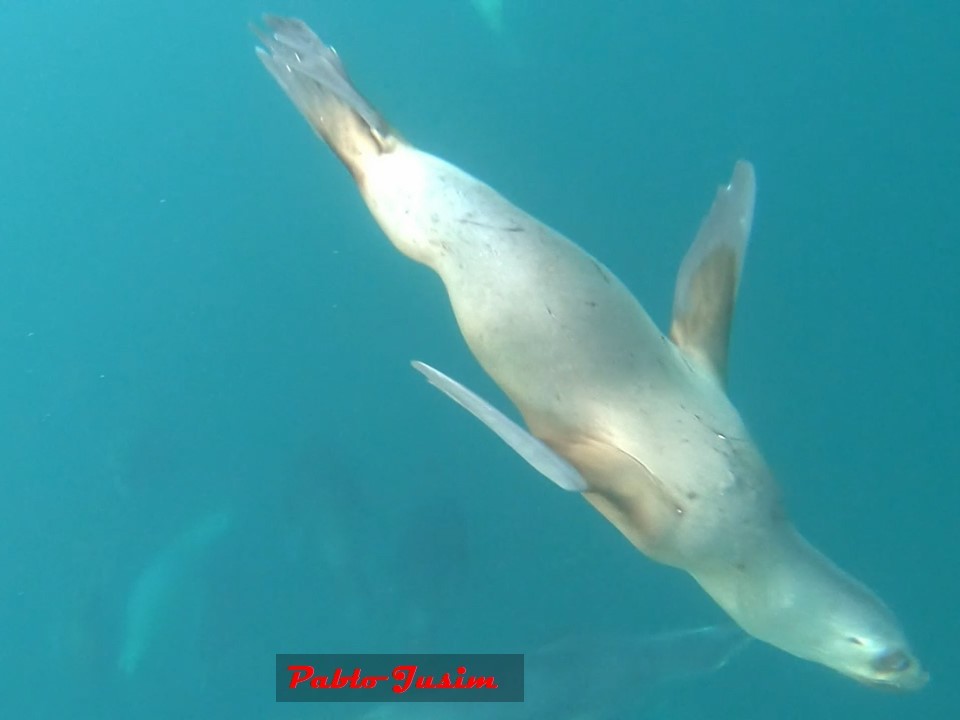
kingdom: Animalia
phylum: Chordata
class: Mammalia
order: Carnivora
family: Otariidae
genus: Otaria
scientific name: Otaria byronia
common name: South american sea lion
